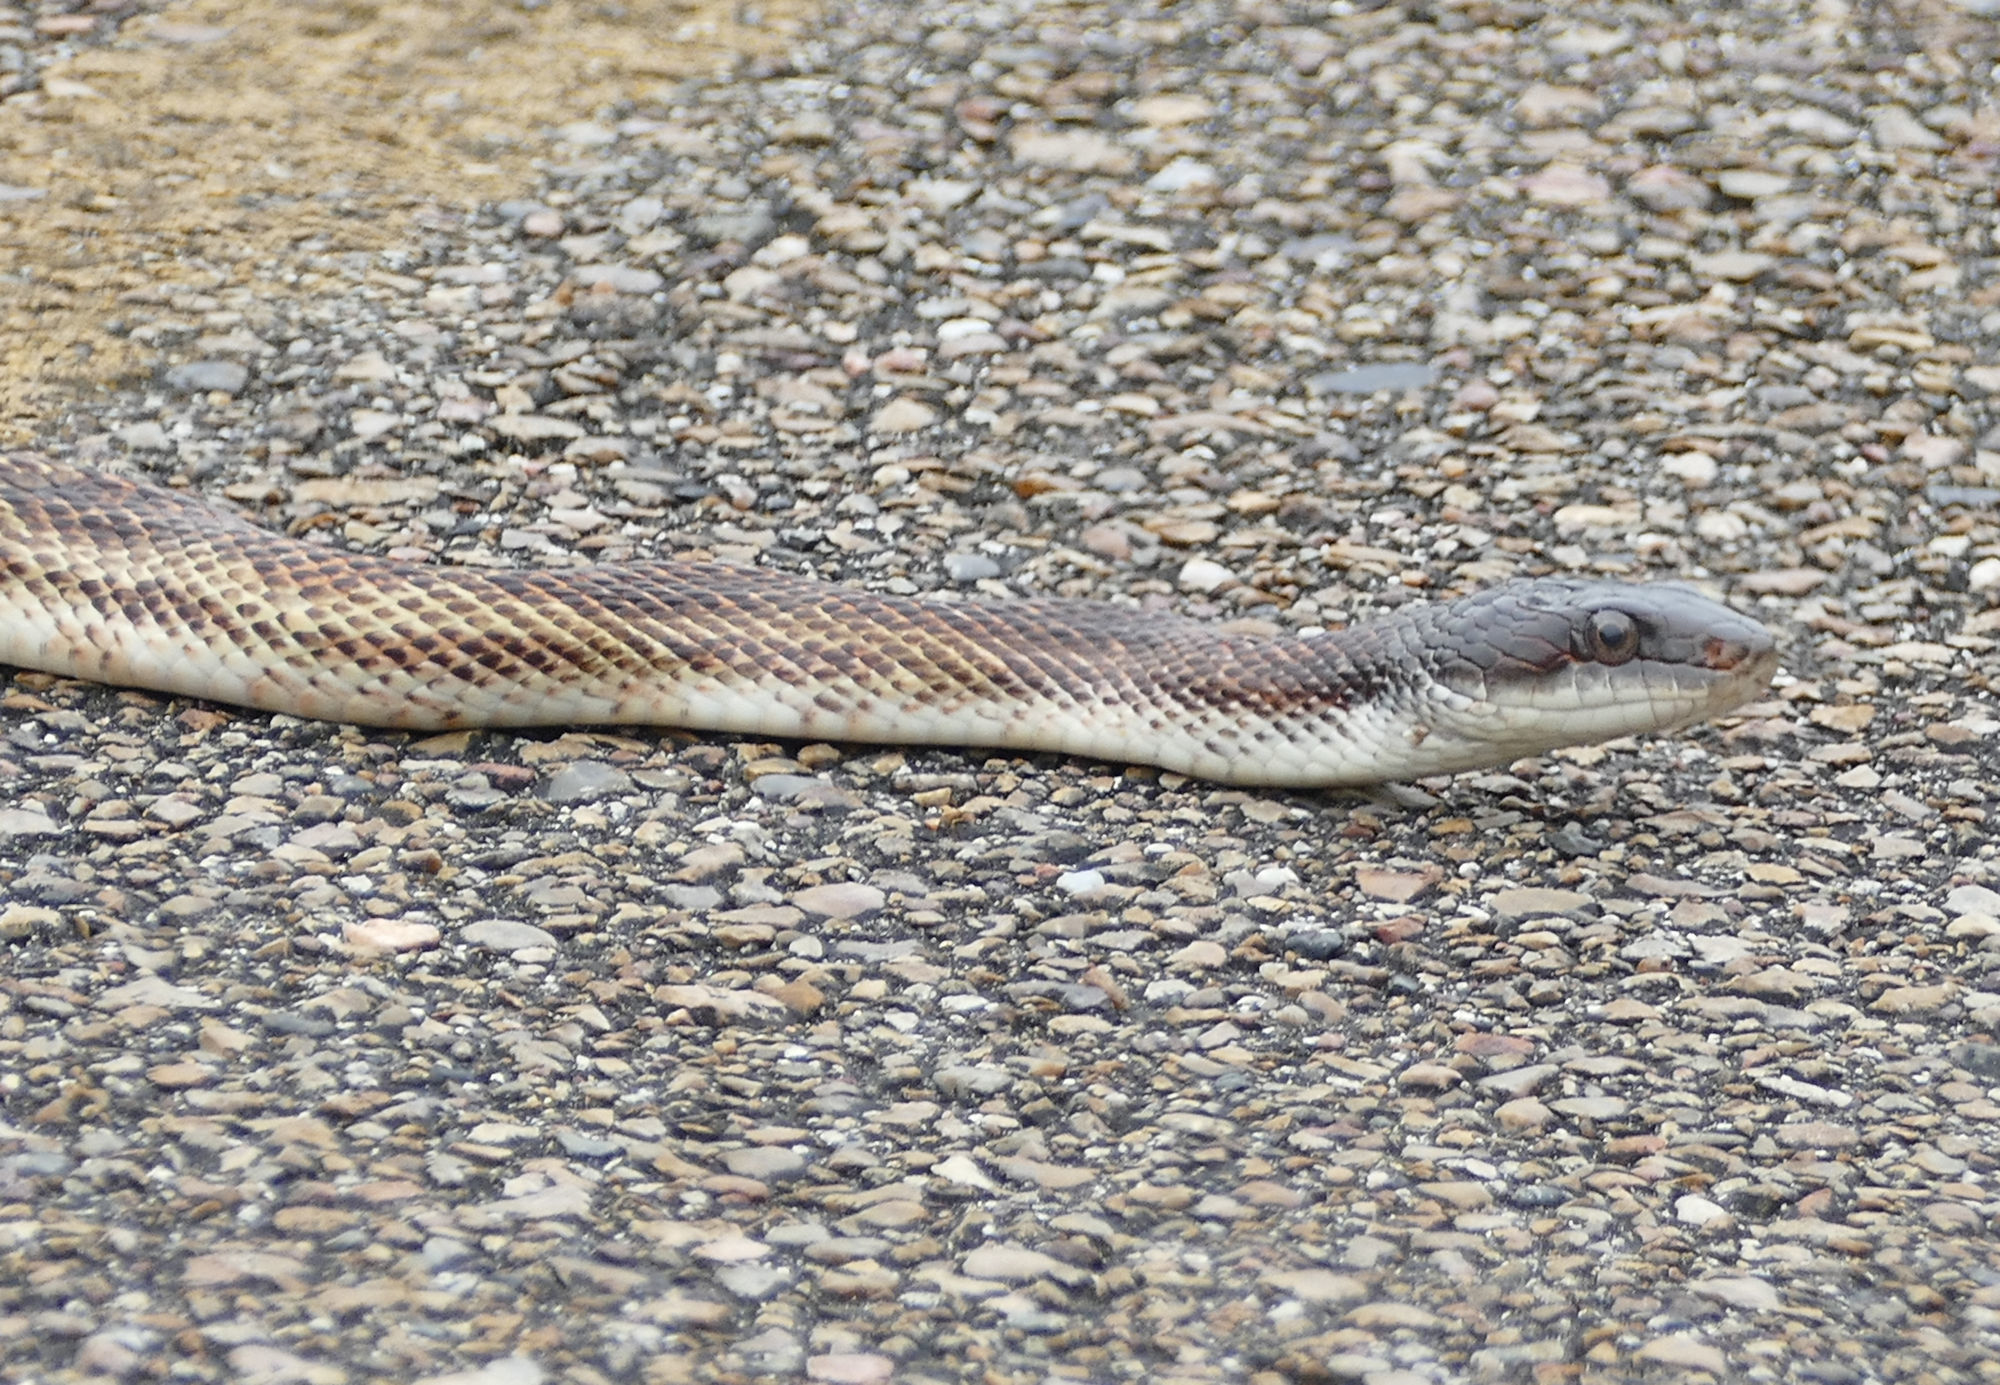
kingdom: Animalia
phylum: Chordata
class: Squamata
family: Colubridae
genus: Pantherophis
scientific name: Pantherophis obsoletus
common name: Black rat snake
